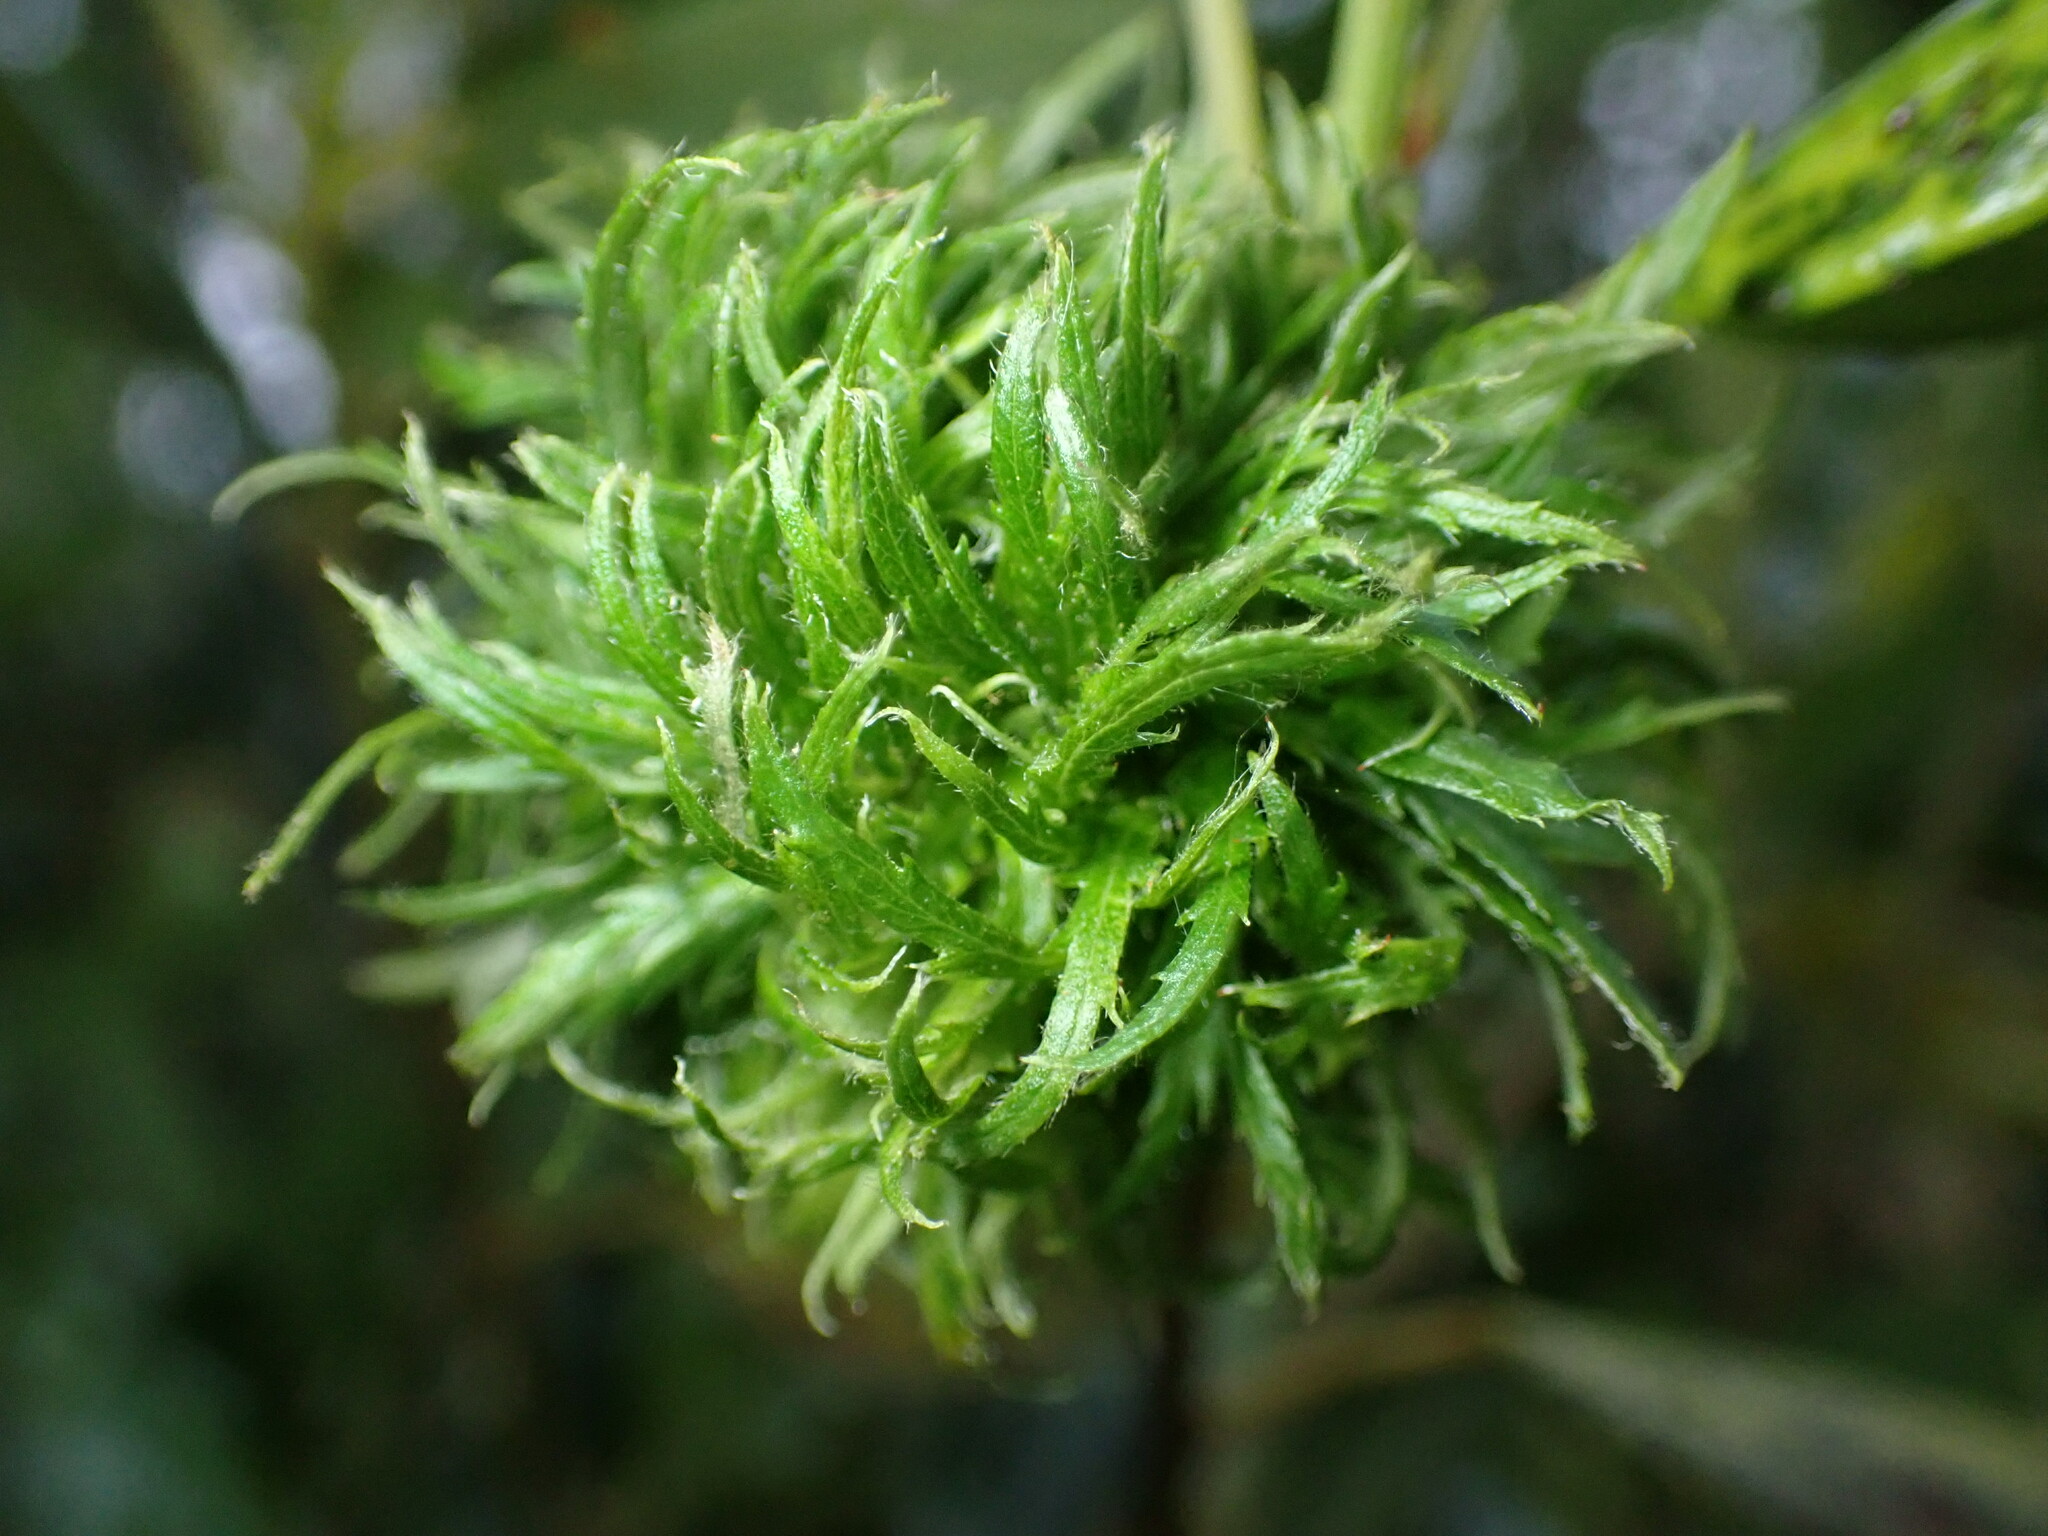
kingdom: Animalia
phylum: Arthropoda
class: Insecta
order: Diptera
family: Cecidomyiidae
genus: Asphondylia
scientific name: Asphondylia ceanothi
